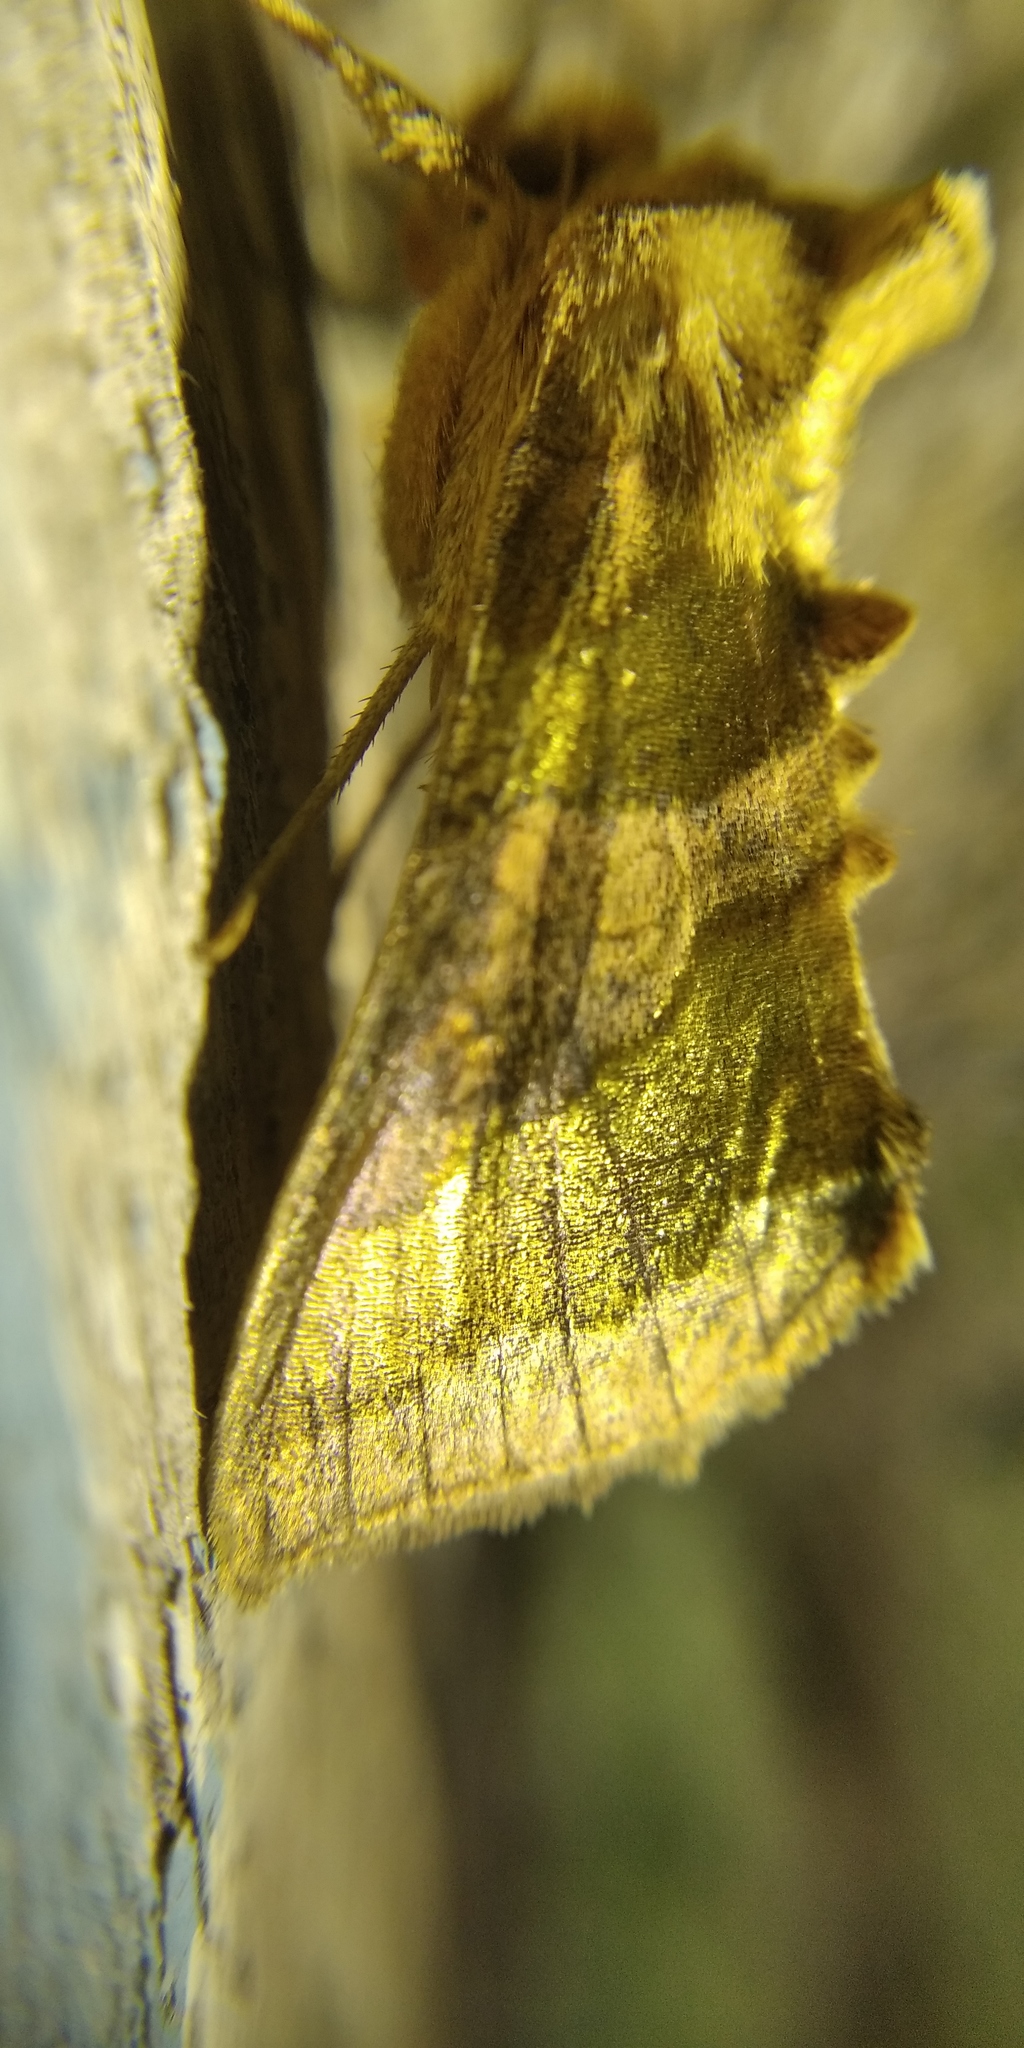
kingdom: Animalia
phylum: Arthropoda
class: Insecta
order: Lepidoptera
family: Noctuidae
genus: Diachrysia
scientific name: Diachrysia chrysitis
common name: Burnished brass
